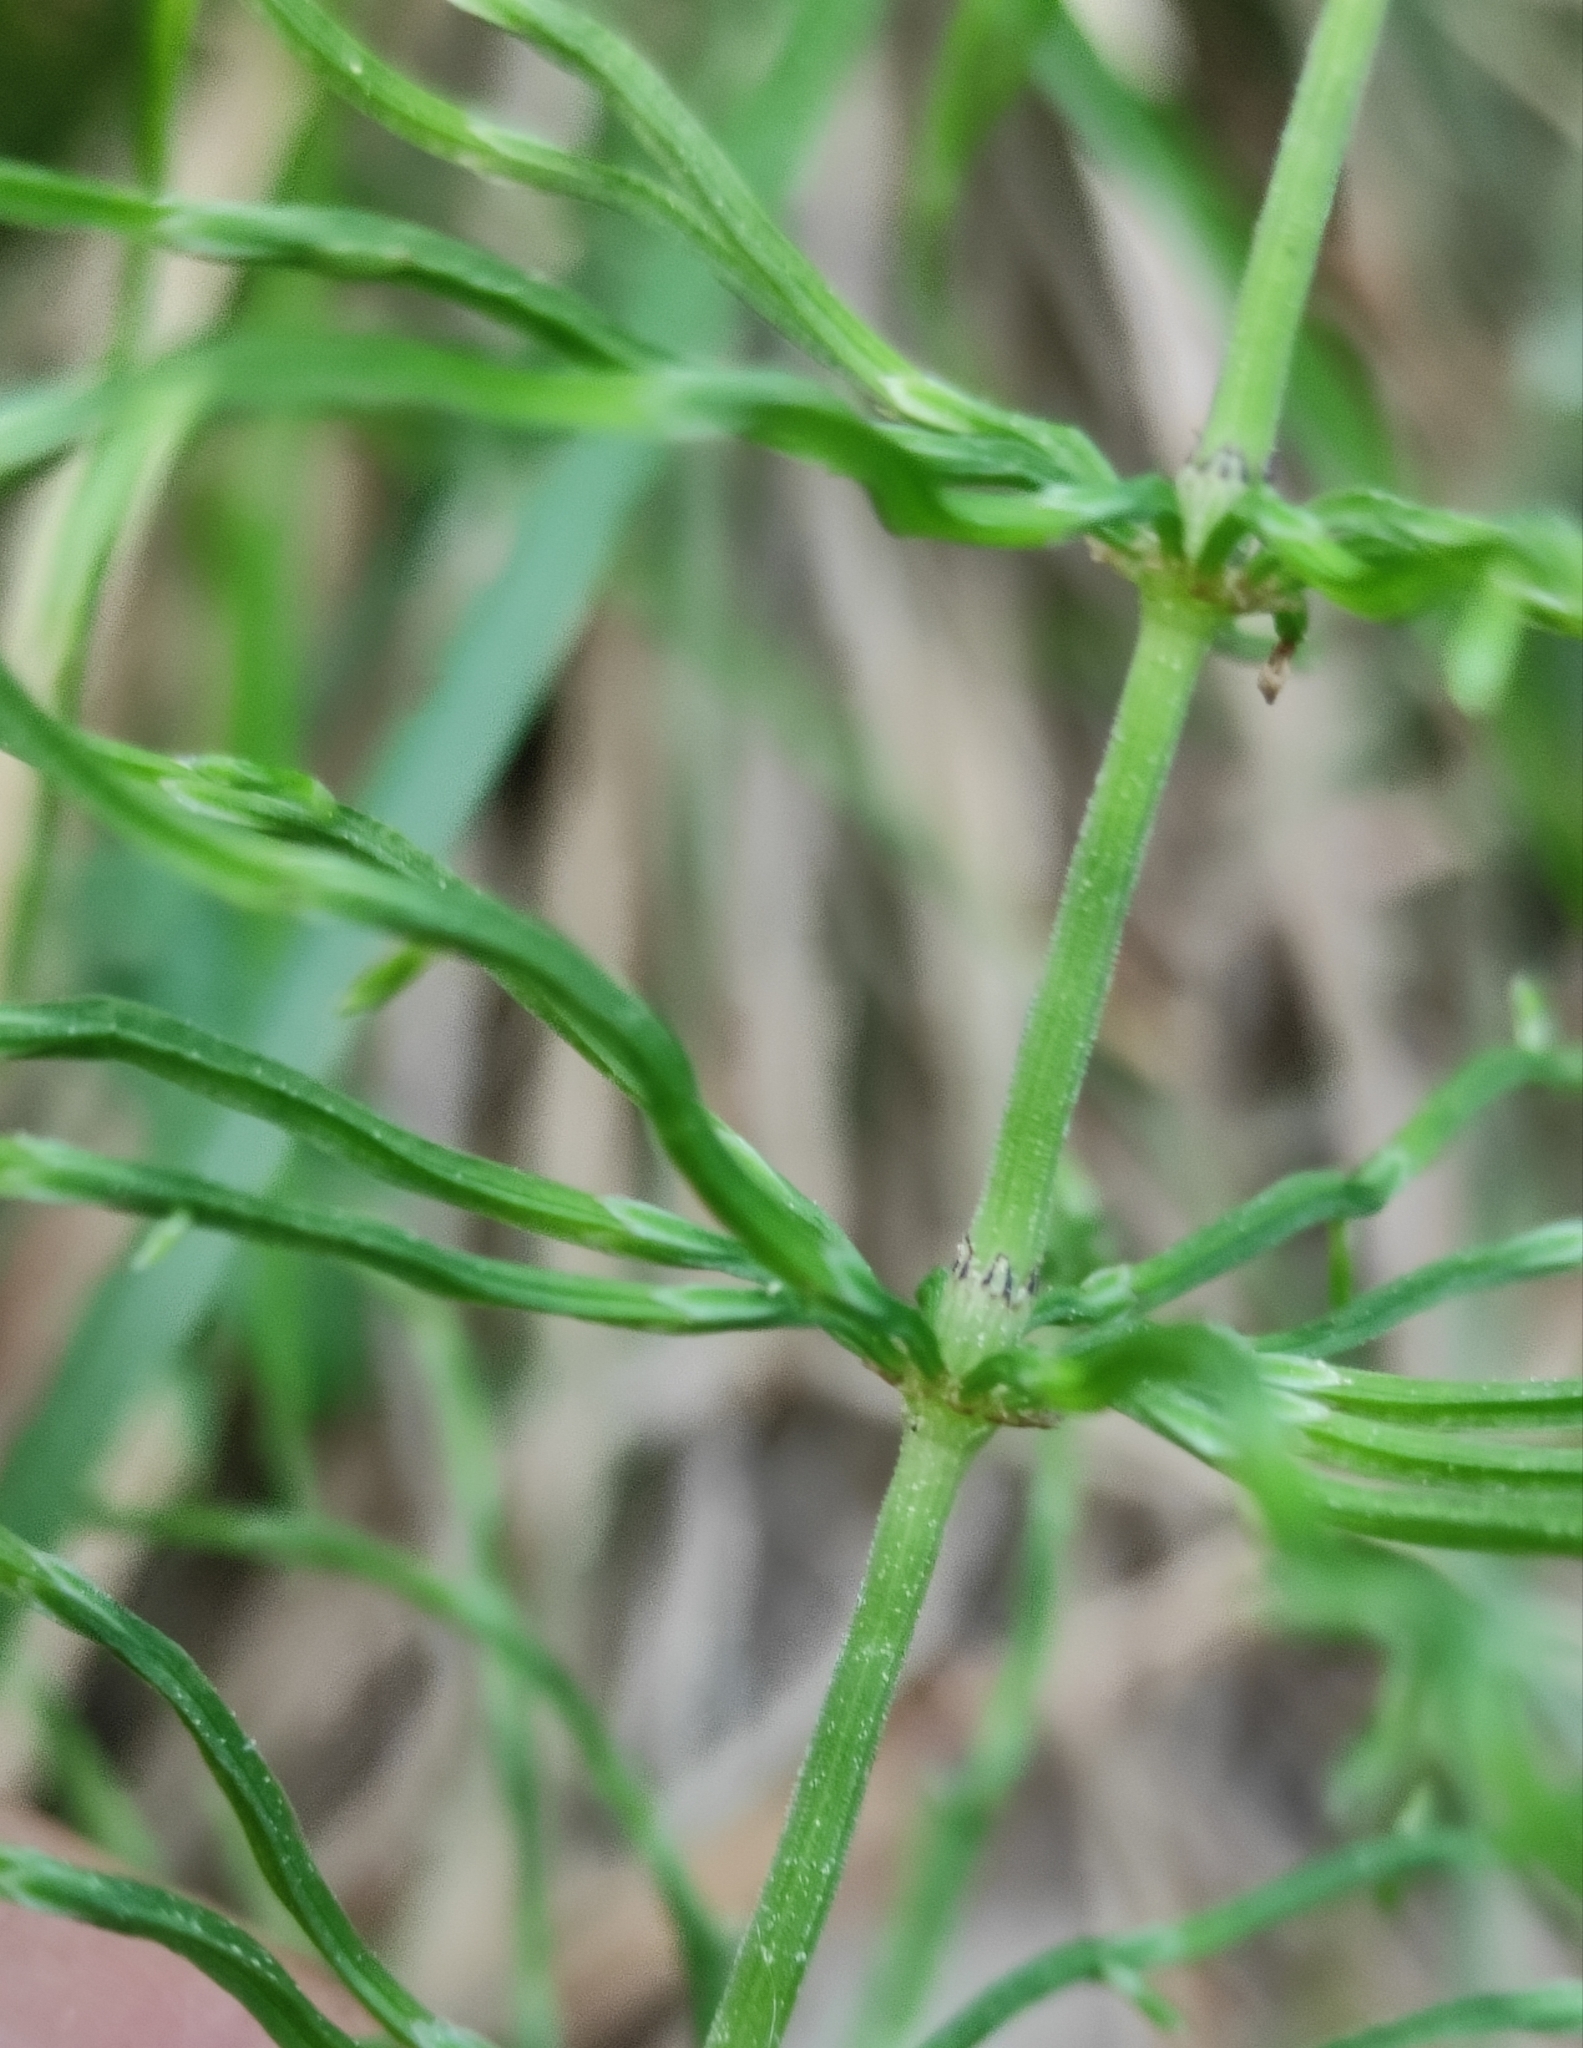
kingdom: Plantae
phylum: Tracheophyta
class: Polypodiopsida
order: Equisetales
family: Equisetaceae
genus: Equisetum
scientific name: Equisetum pratense
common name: Meadow horsetail
